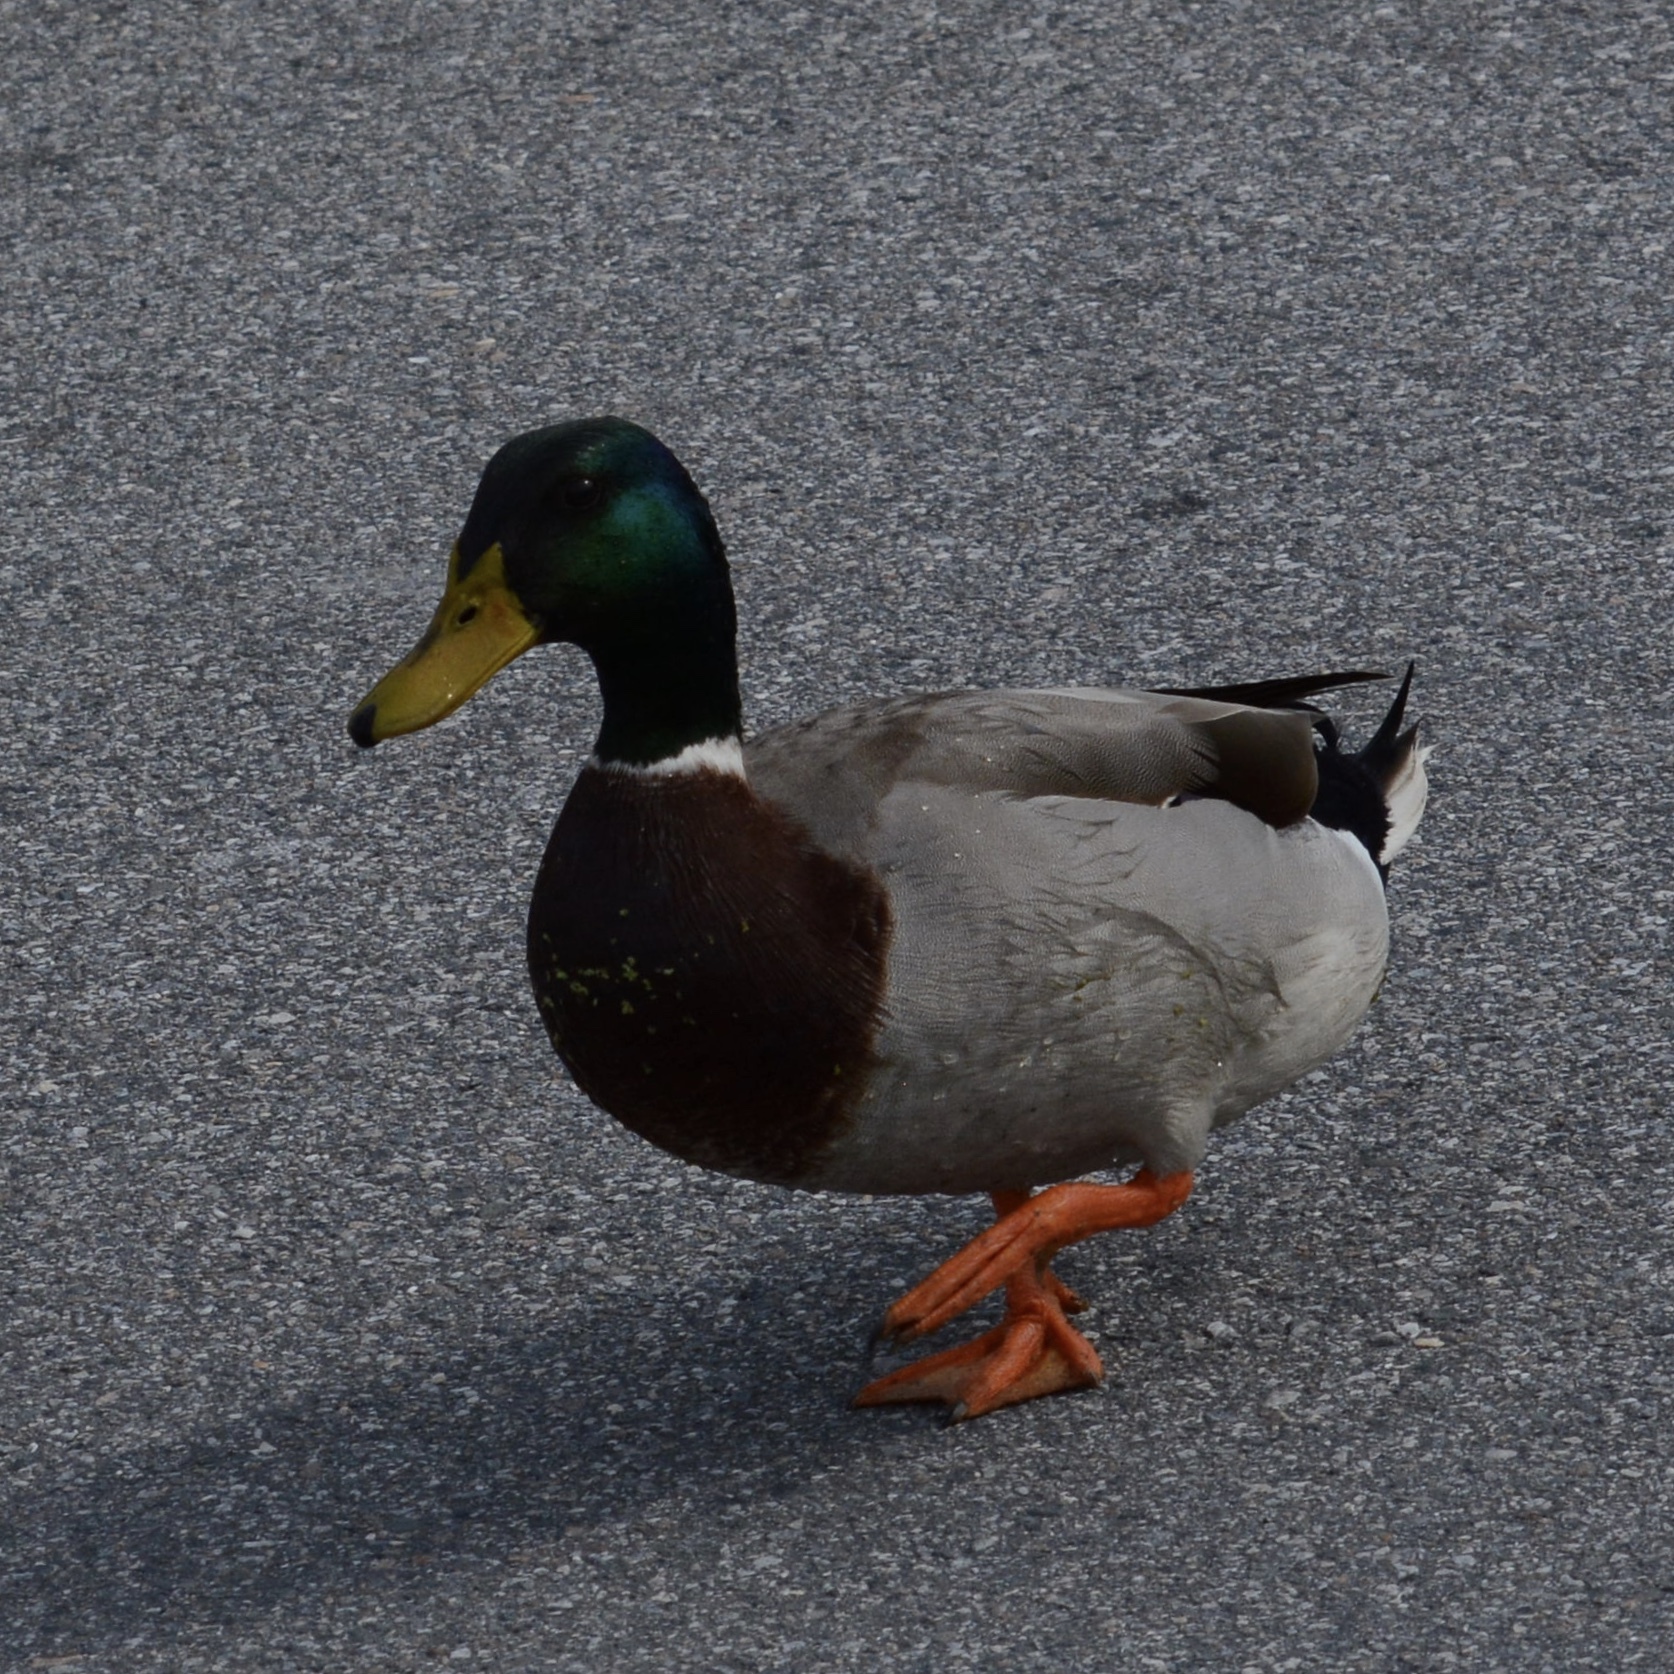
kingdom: Animalia
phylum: Chordata
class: Aves
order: Anseriformes
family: Anatidae
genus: Anas
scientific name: Anas platyrhynchos
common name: Mallard
